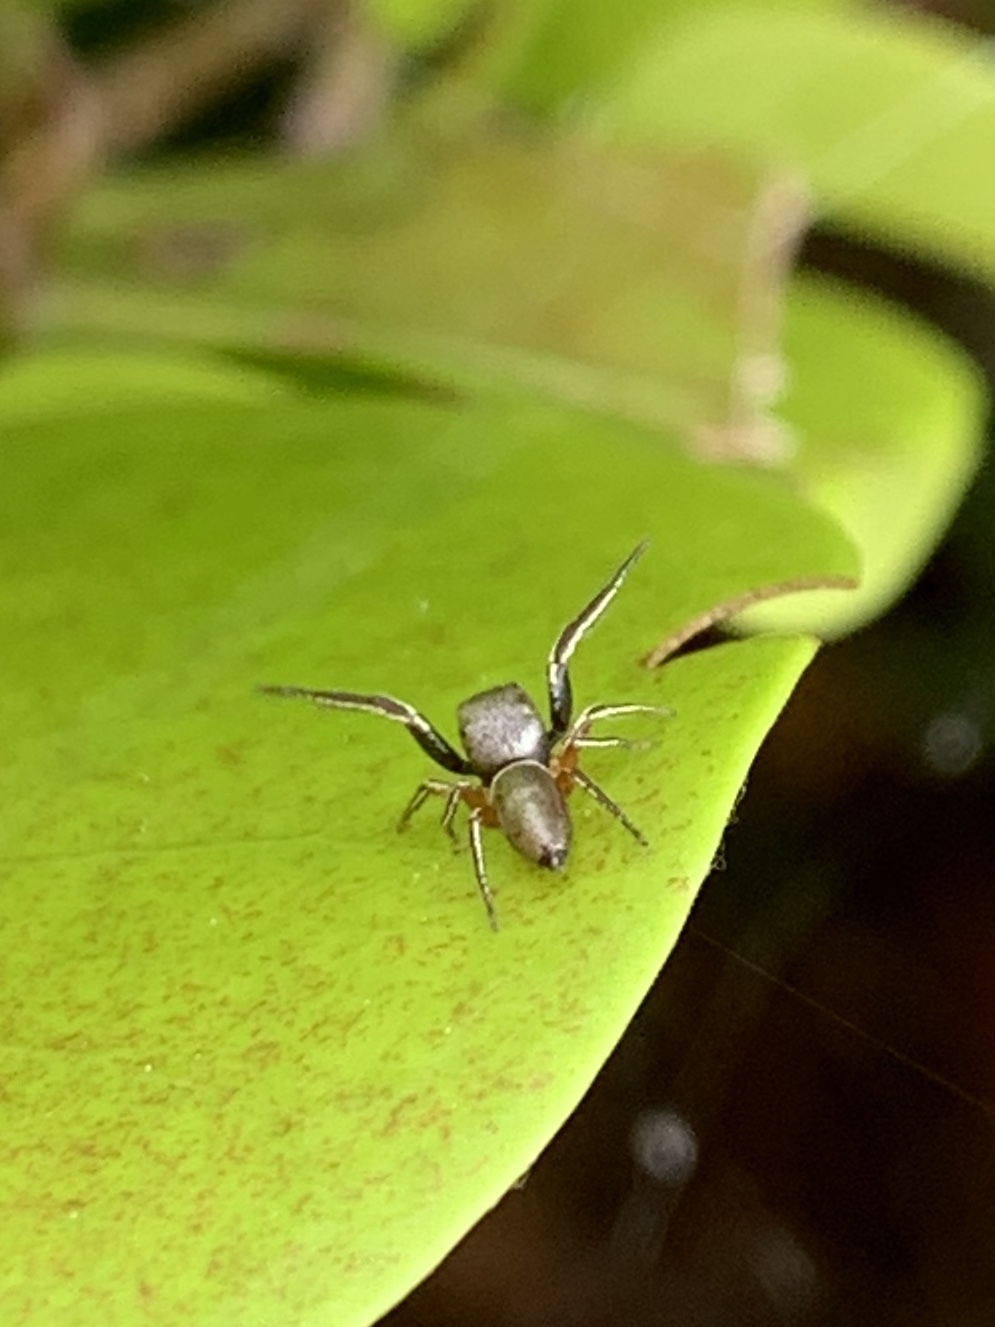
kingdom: Animalia
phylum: Arthropoda
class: Arachnida
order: Araneae
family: Salticidae
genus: Beata
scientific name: Beata wickhami
